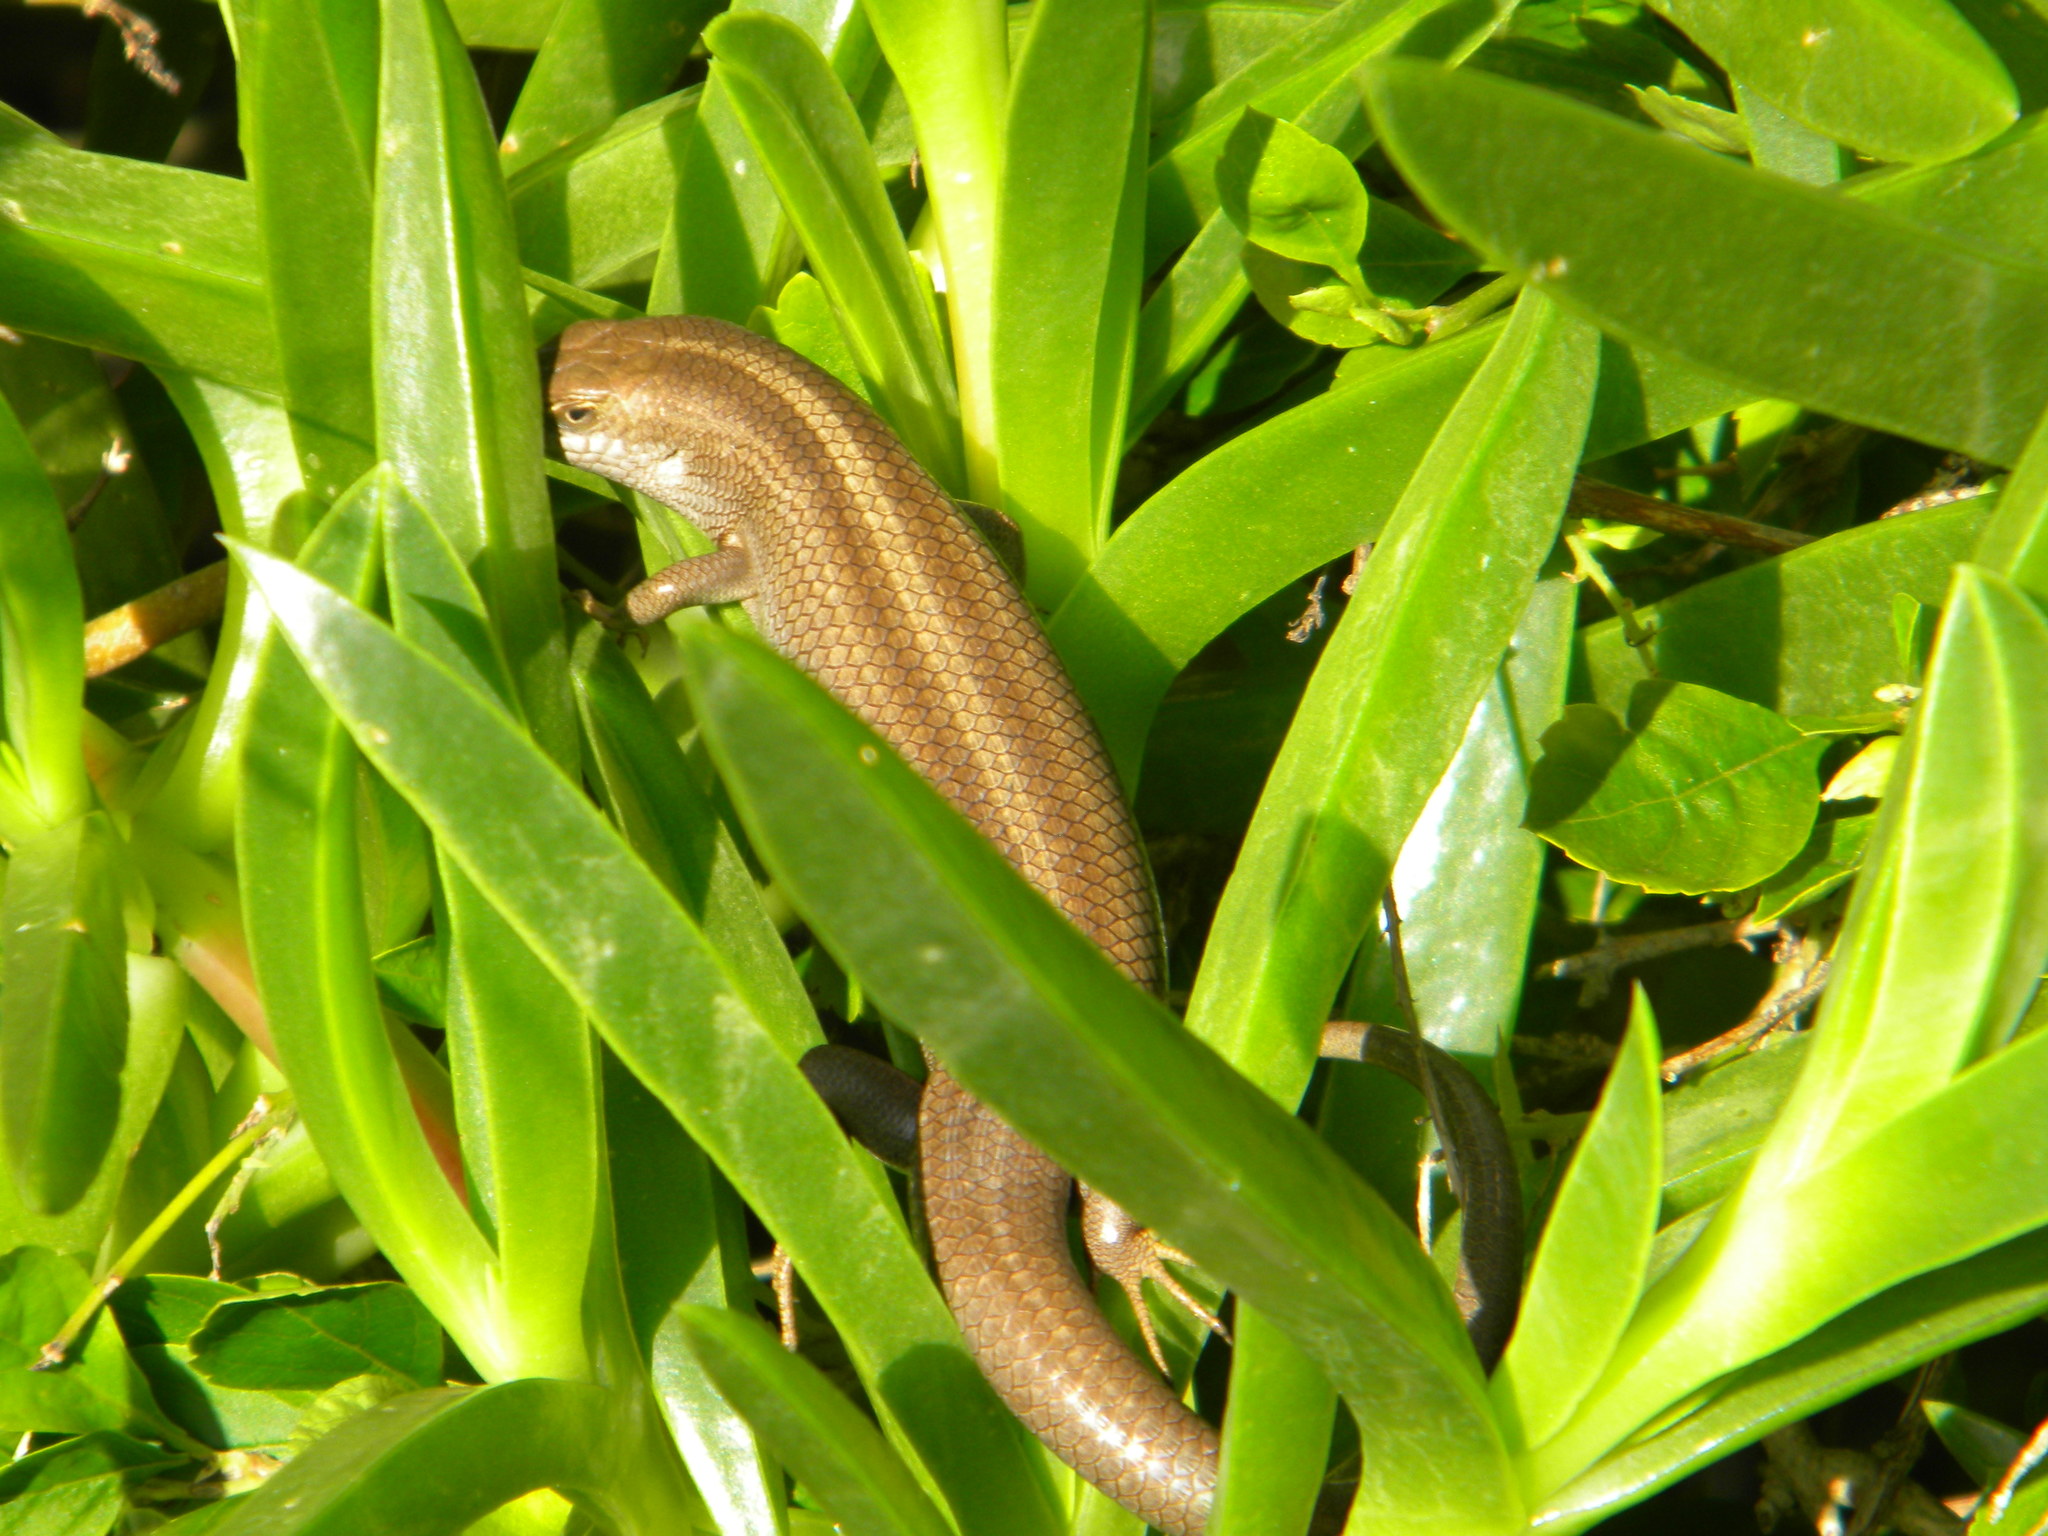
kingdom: Animalia
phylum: Chordata
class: Squamata
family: Scincidae
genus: Trachylepis
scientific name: Trachylepis capensis
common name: Cape skink
